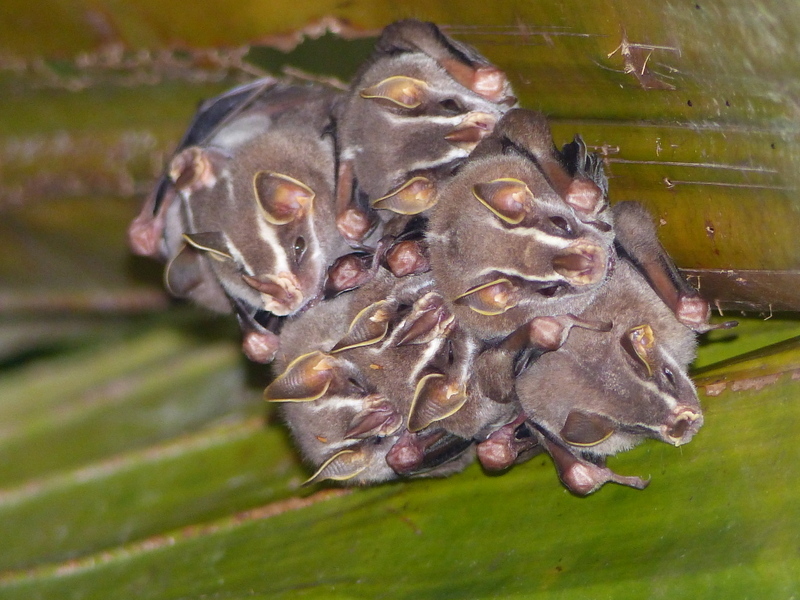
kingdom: Animalia
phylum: Chordata
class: Mammalia
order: Chiroptera
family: Phyllostomidae
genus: Uroderma
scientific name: Uroderma bilobatum
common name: Common tent-making bat
